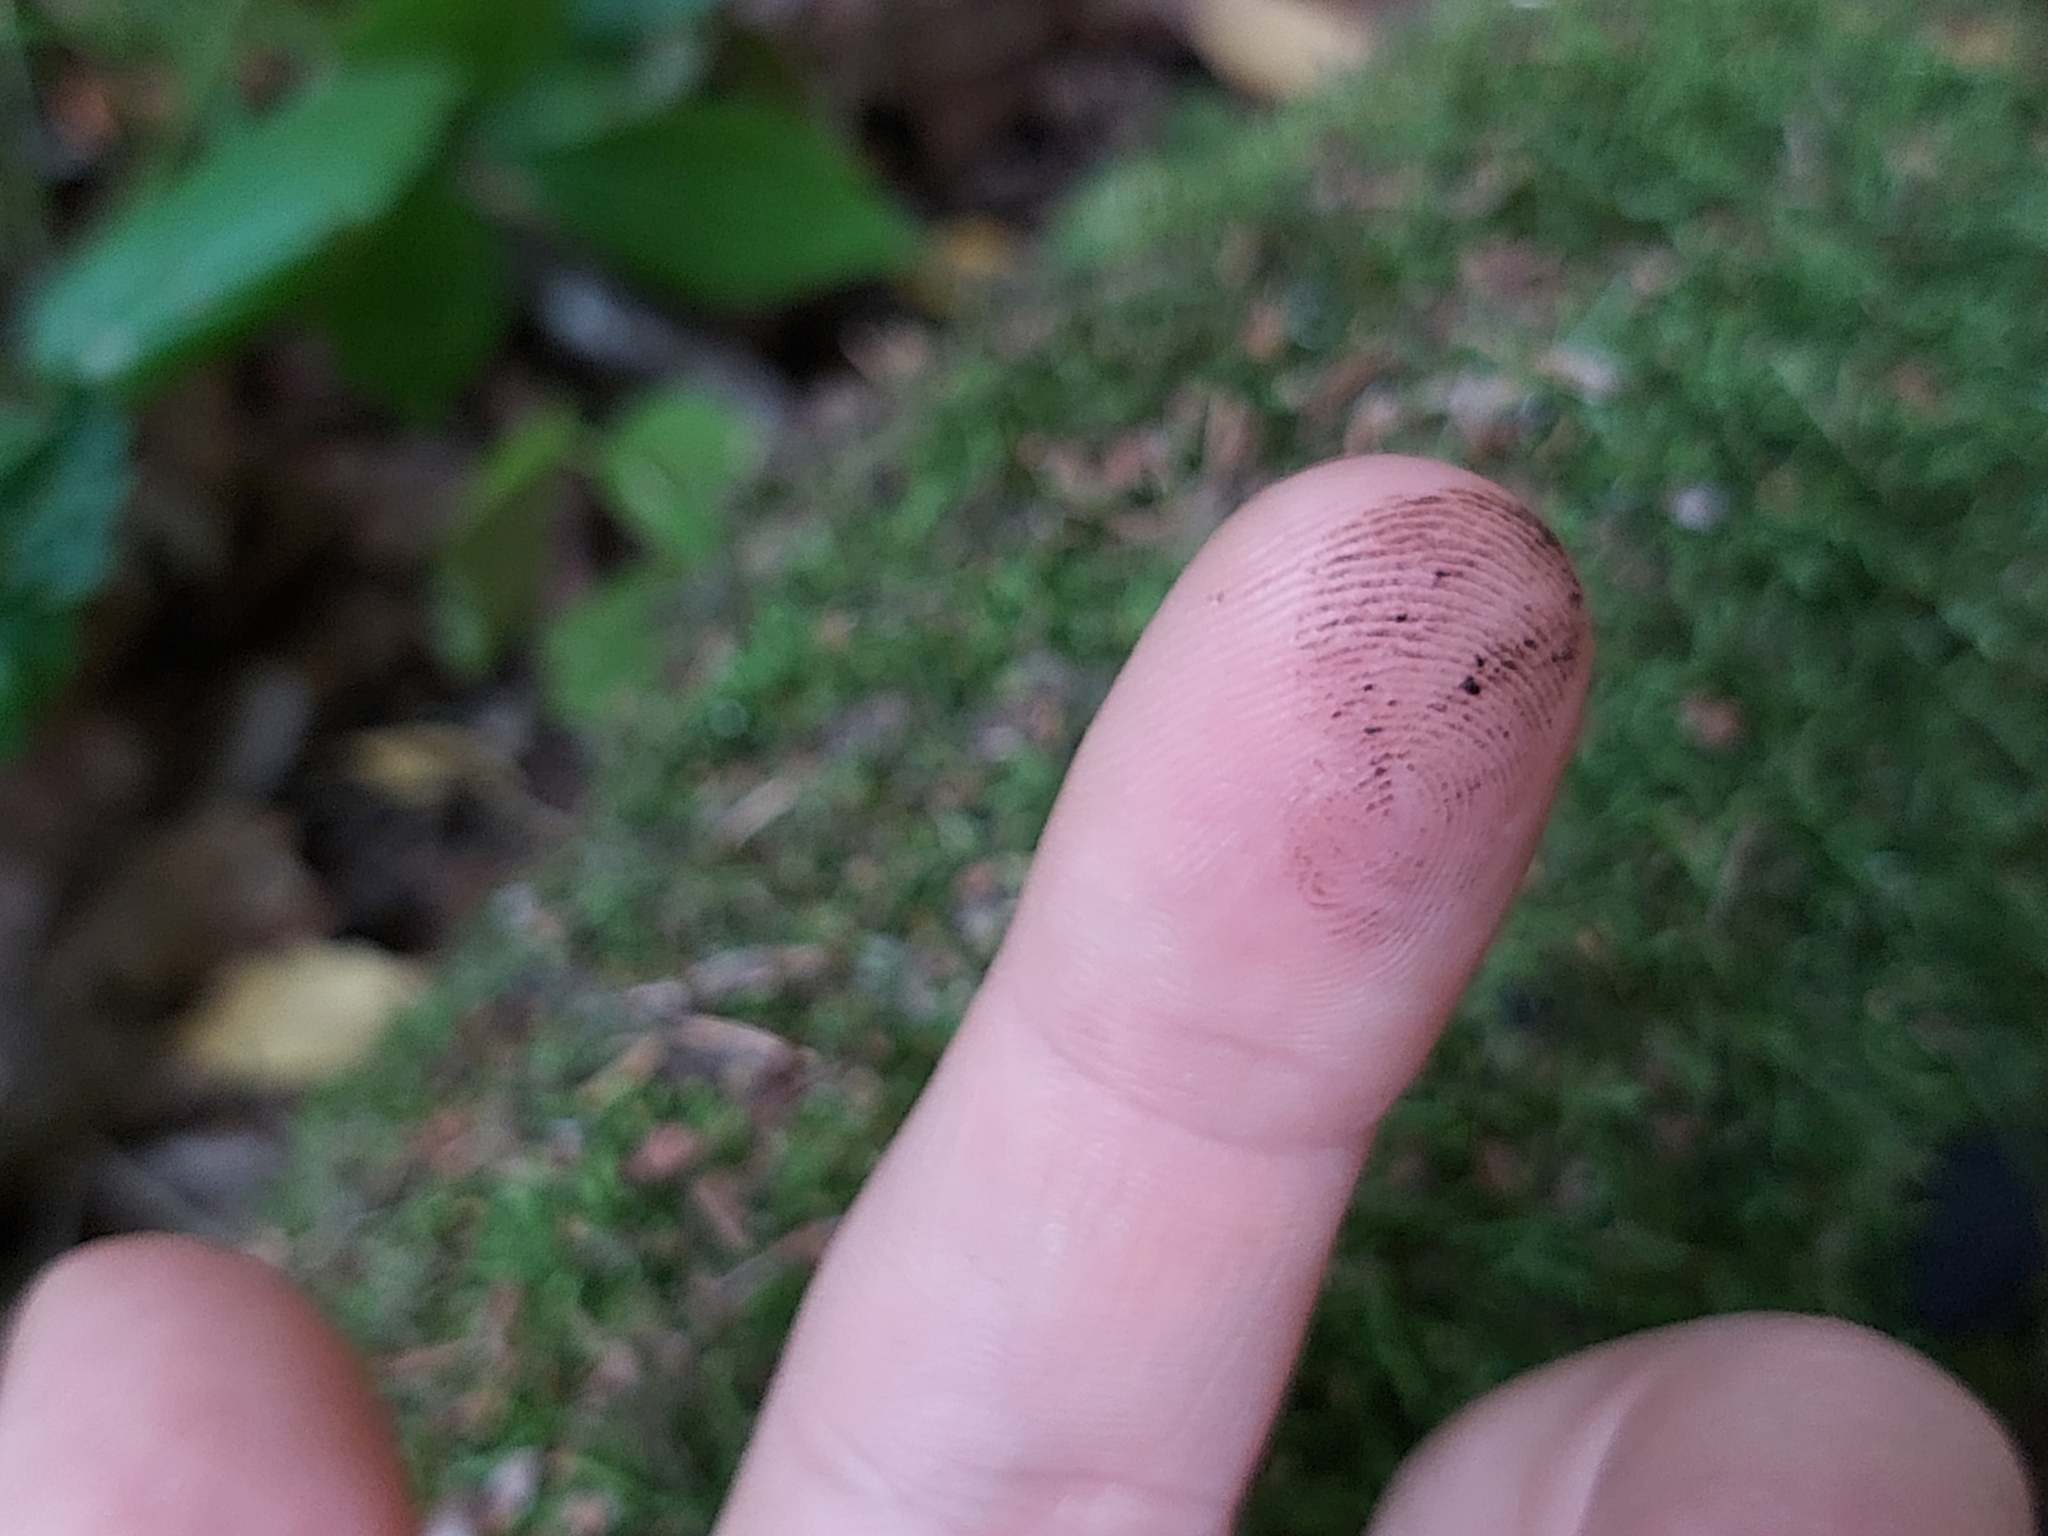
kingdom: Fungi
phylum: Ascomycota
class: Leotiomycetes
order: Phacidiales
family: Phacidiaceae
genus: Bulgaria
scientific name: Bulgaria inquinans
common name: Black bulgar
